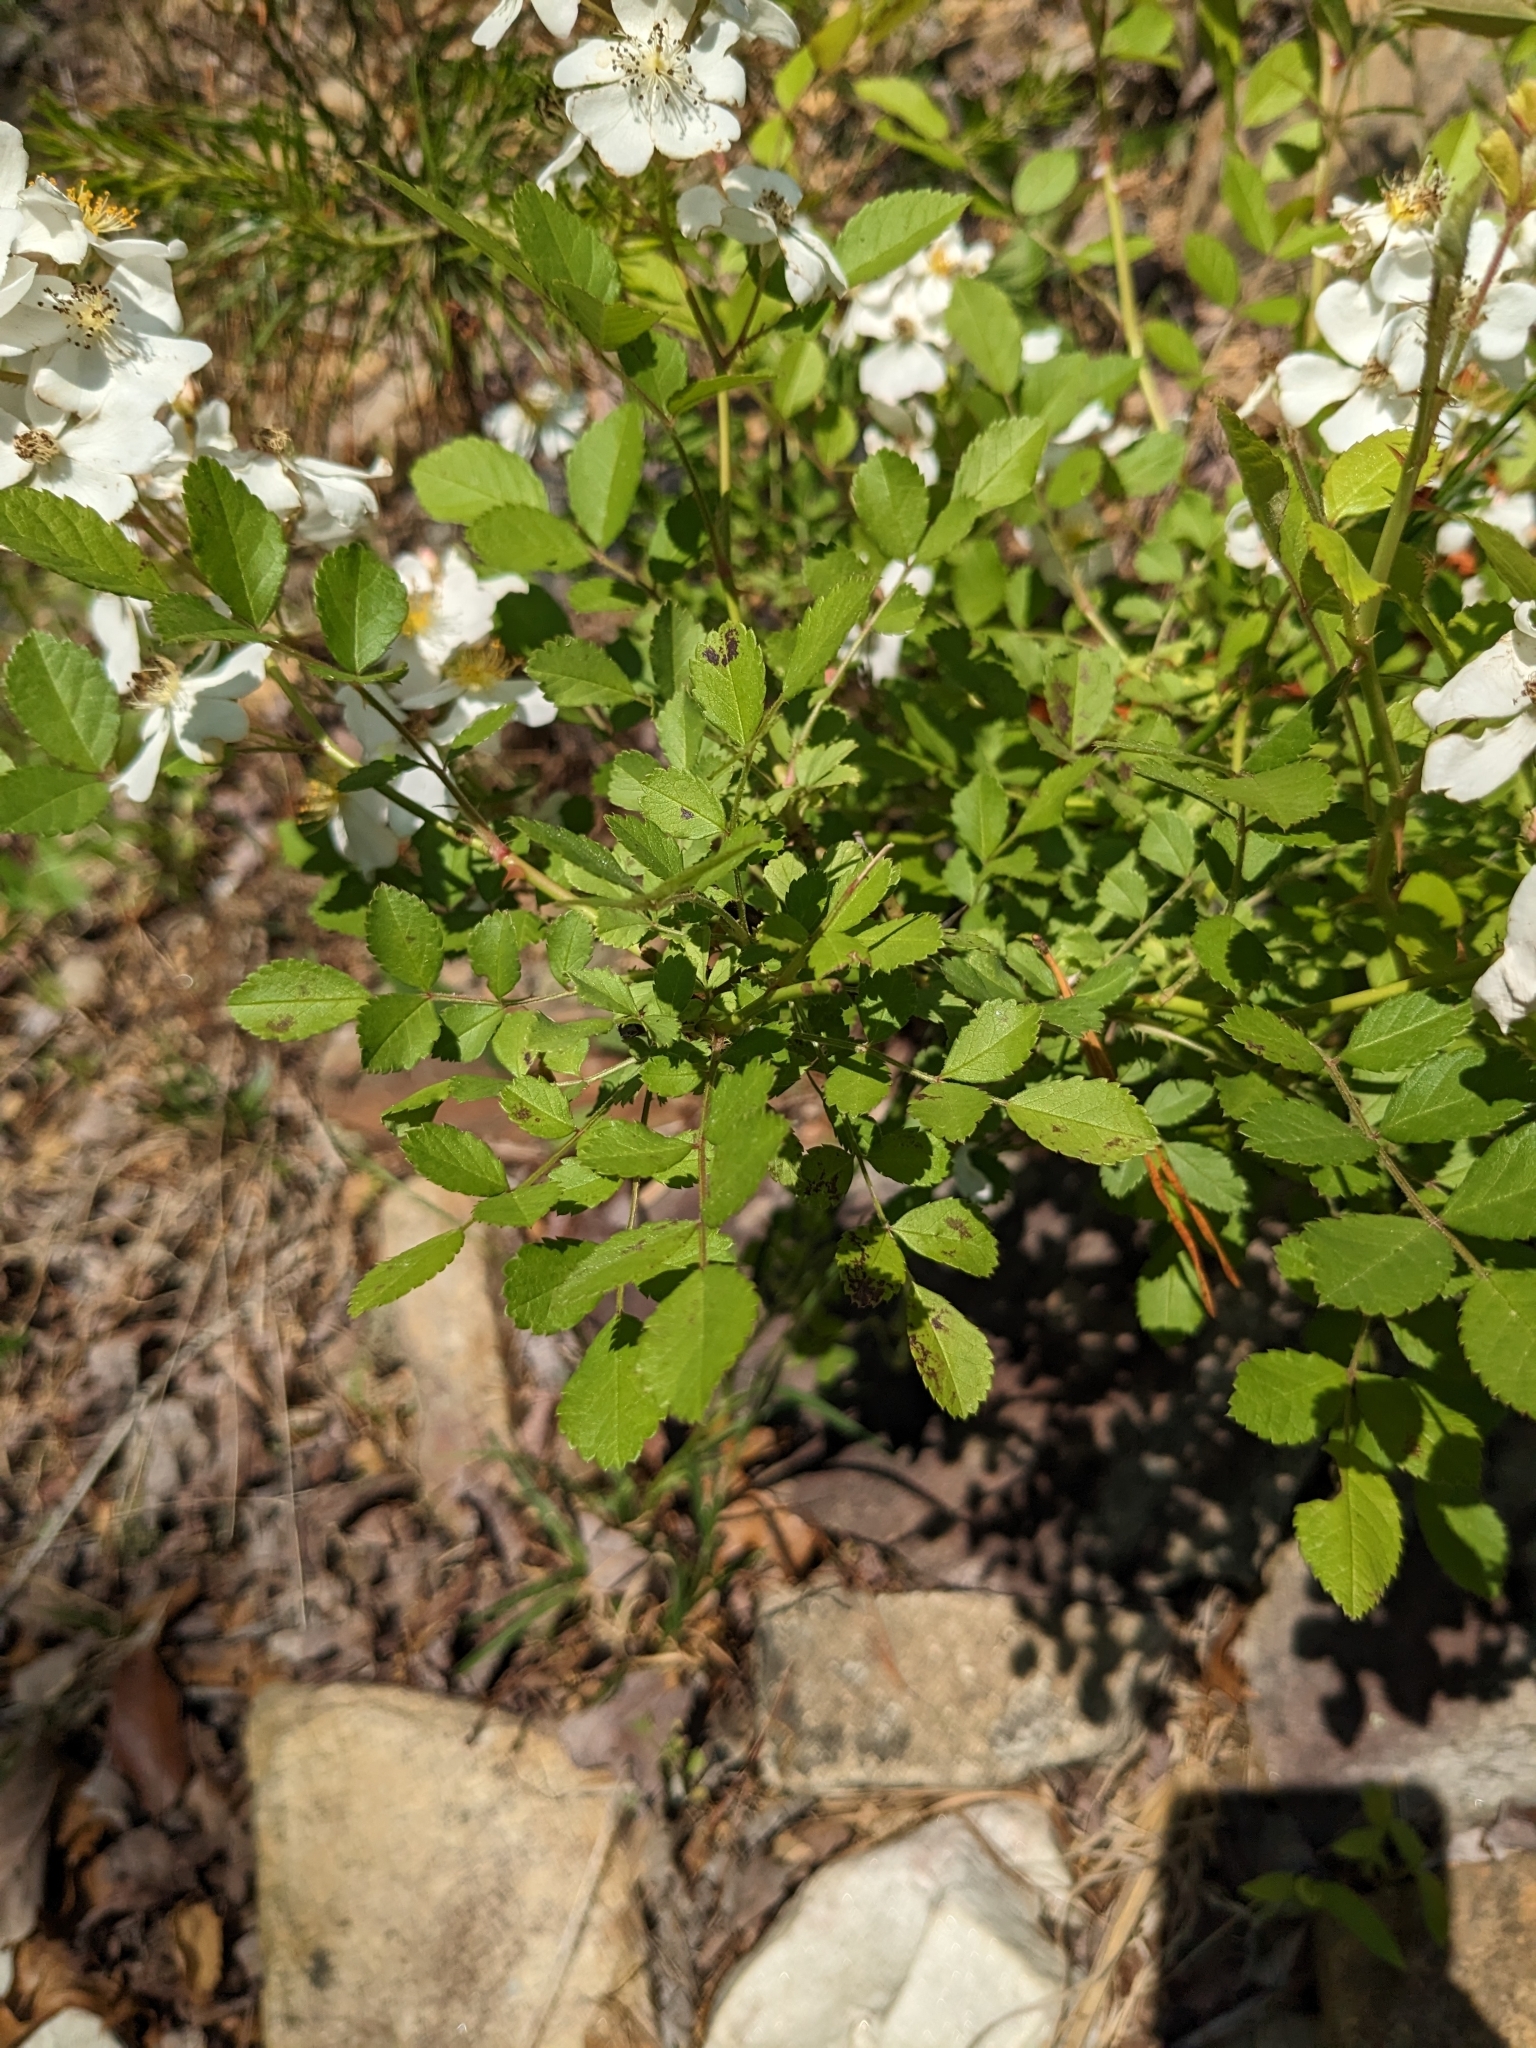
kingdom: Plantae
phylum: Tracheophyta
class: Magnoliopsida
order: Rosales
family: Rosaceae
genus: Rosa
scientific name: Rosa multiflora
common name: Multiflora rose
